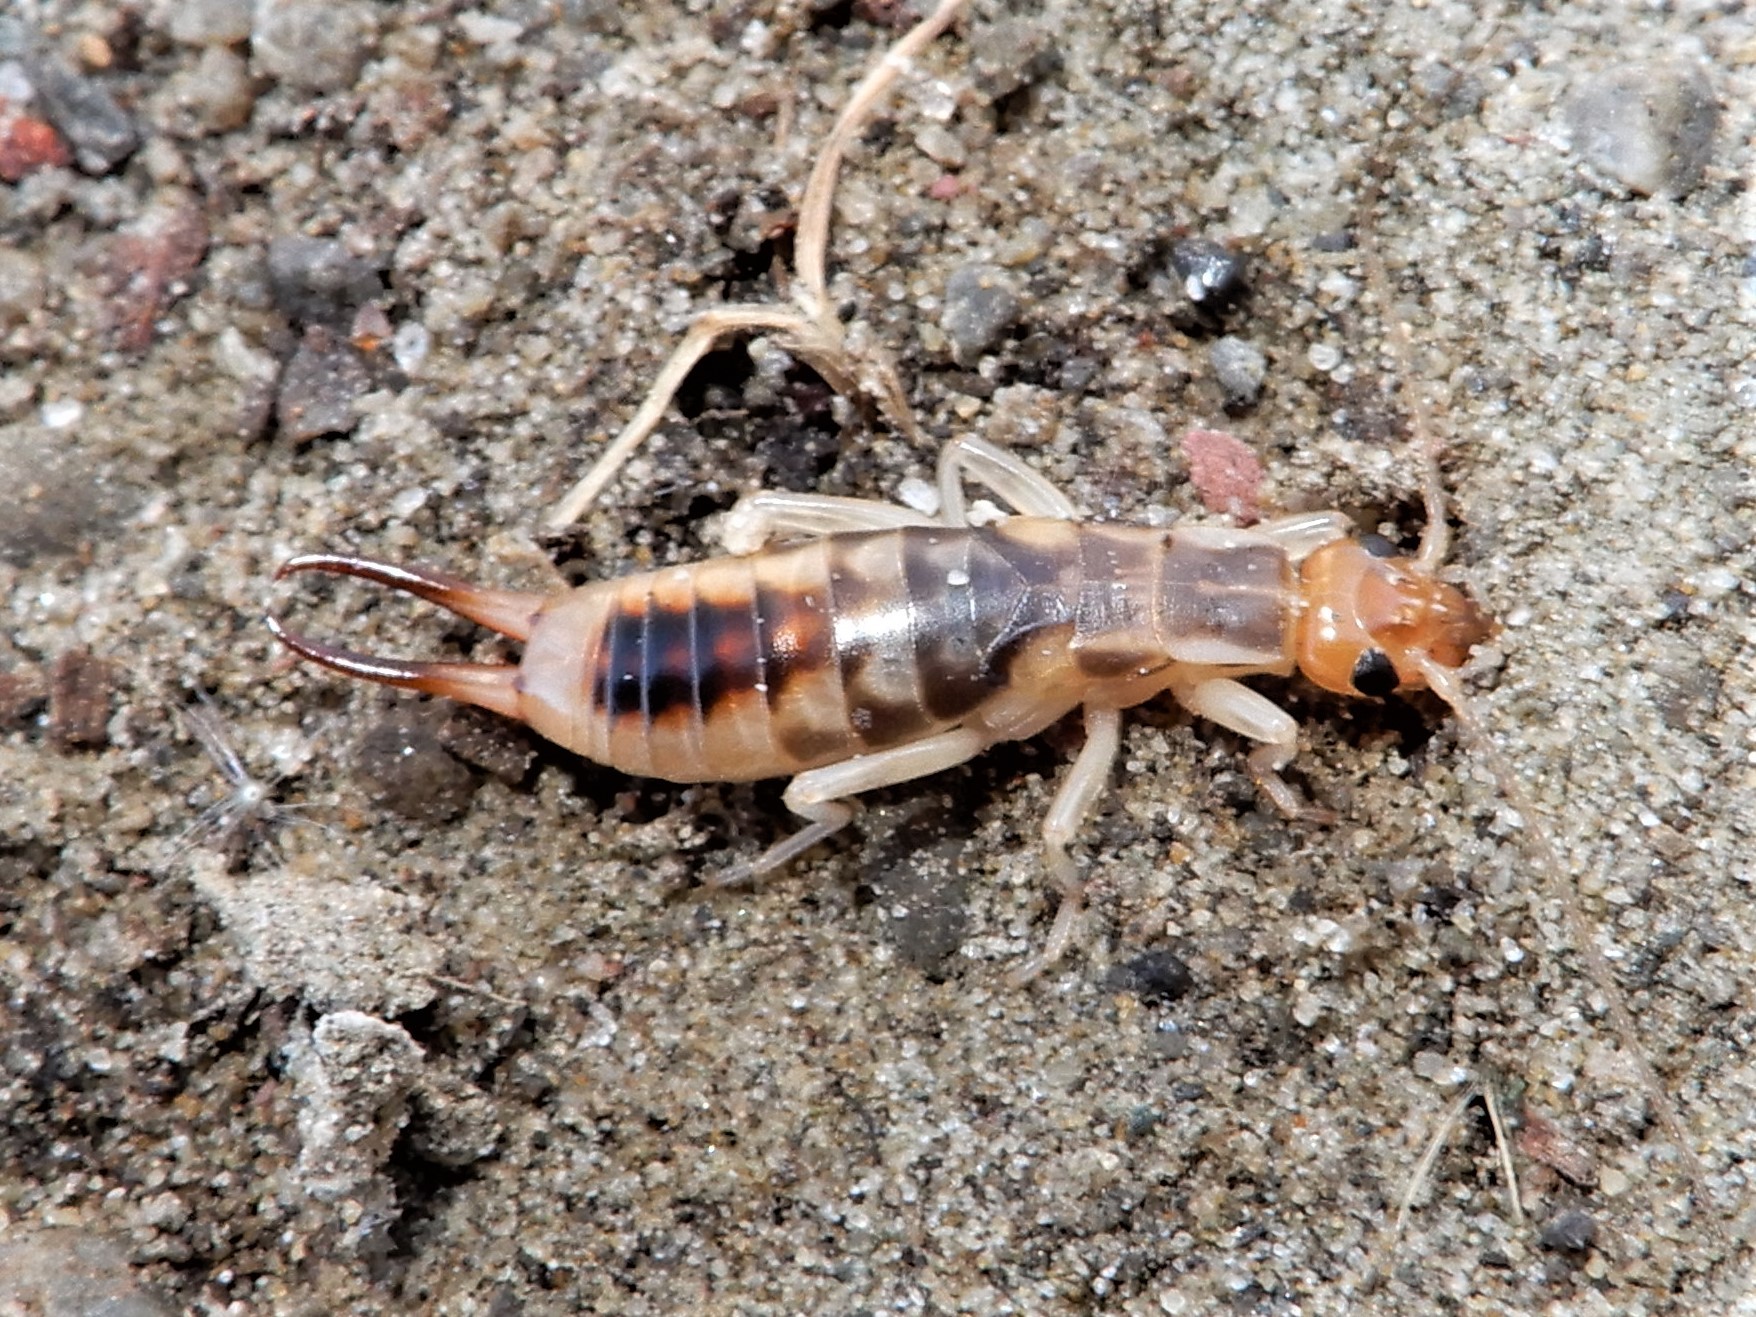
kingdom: Animalia
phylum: Arthropoda
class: Insecta
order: Dermaptera
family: Labiduridae
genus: Labidura
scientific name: Labidura riparia
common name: Striped earwig
